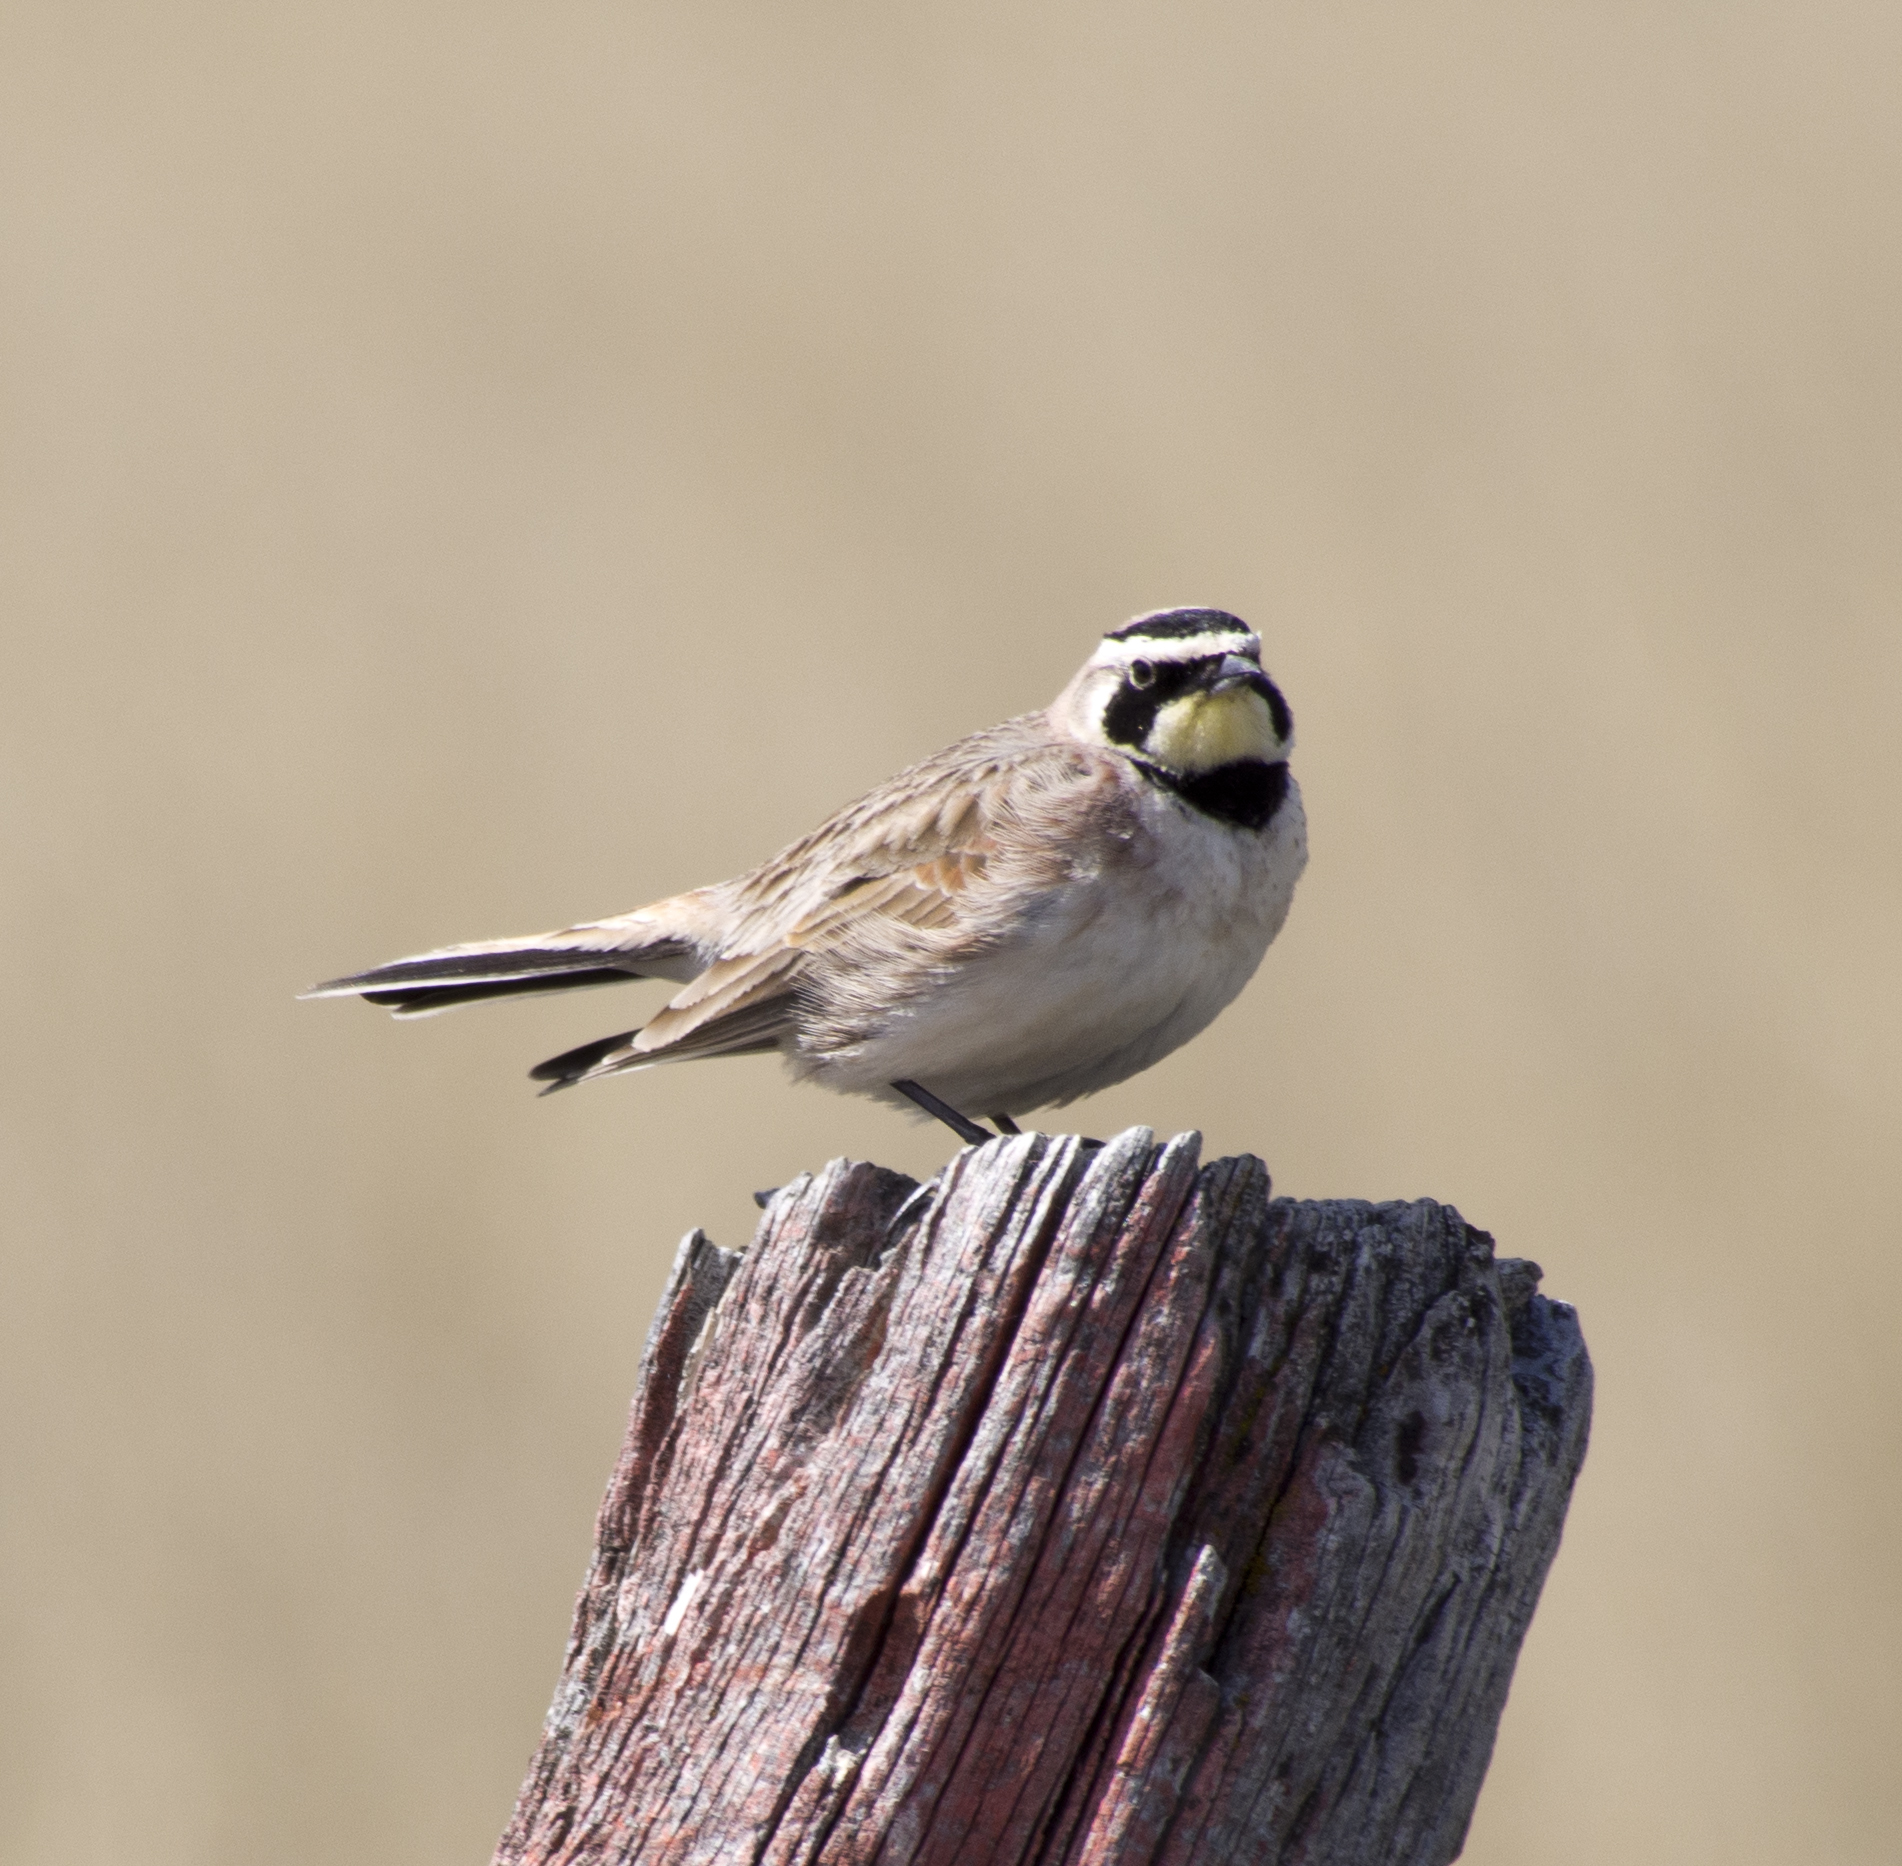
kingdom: Animalia
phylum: Chordata
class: Aves
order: Passeriformes
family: Alaudidae
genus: Eremophila
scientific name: Eremophila alpestris
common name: Horned lark
